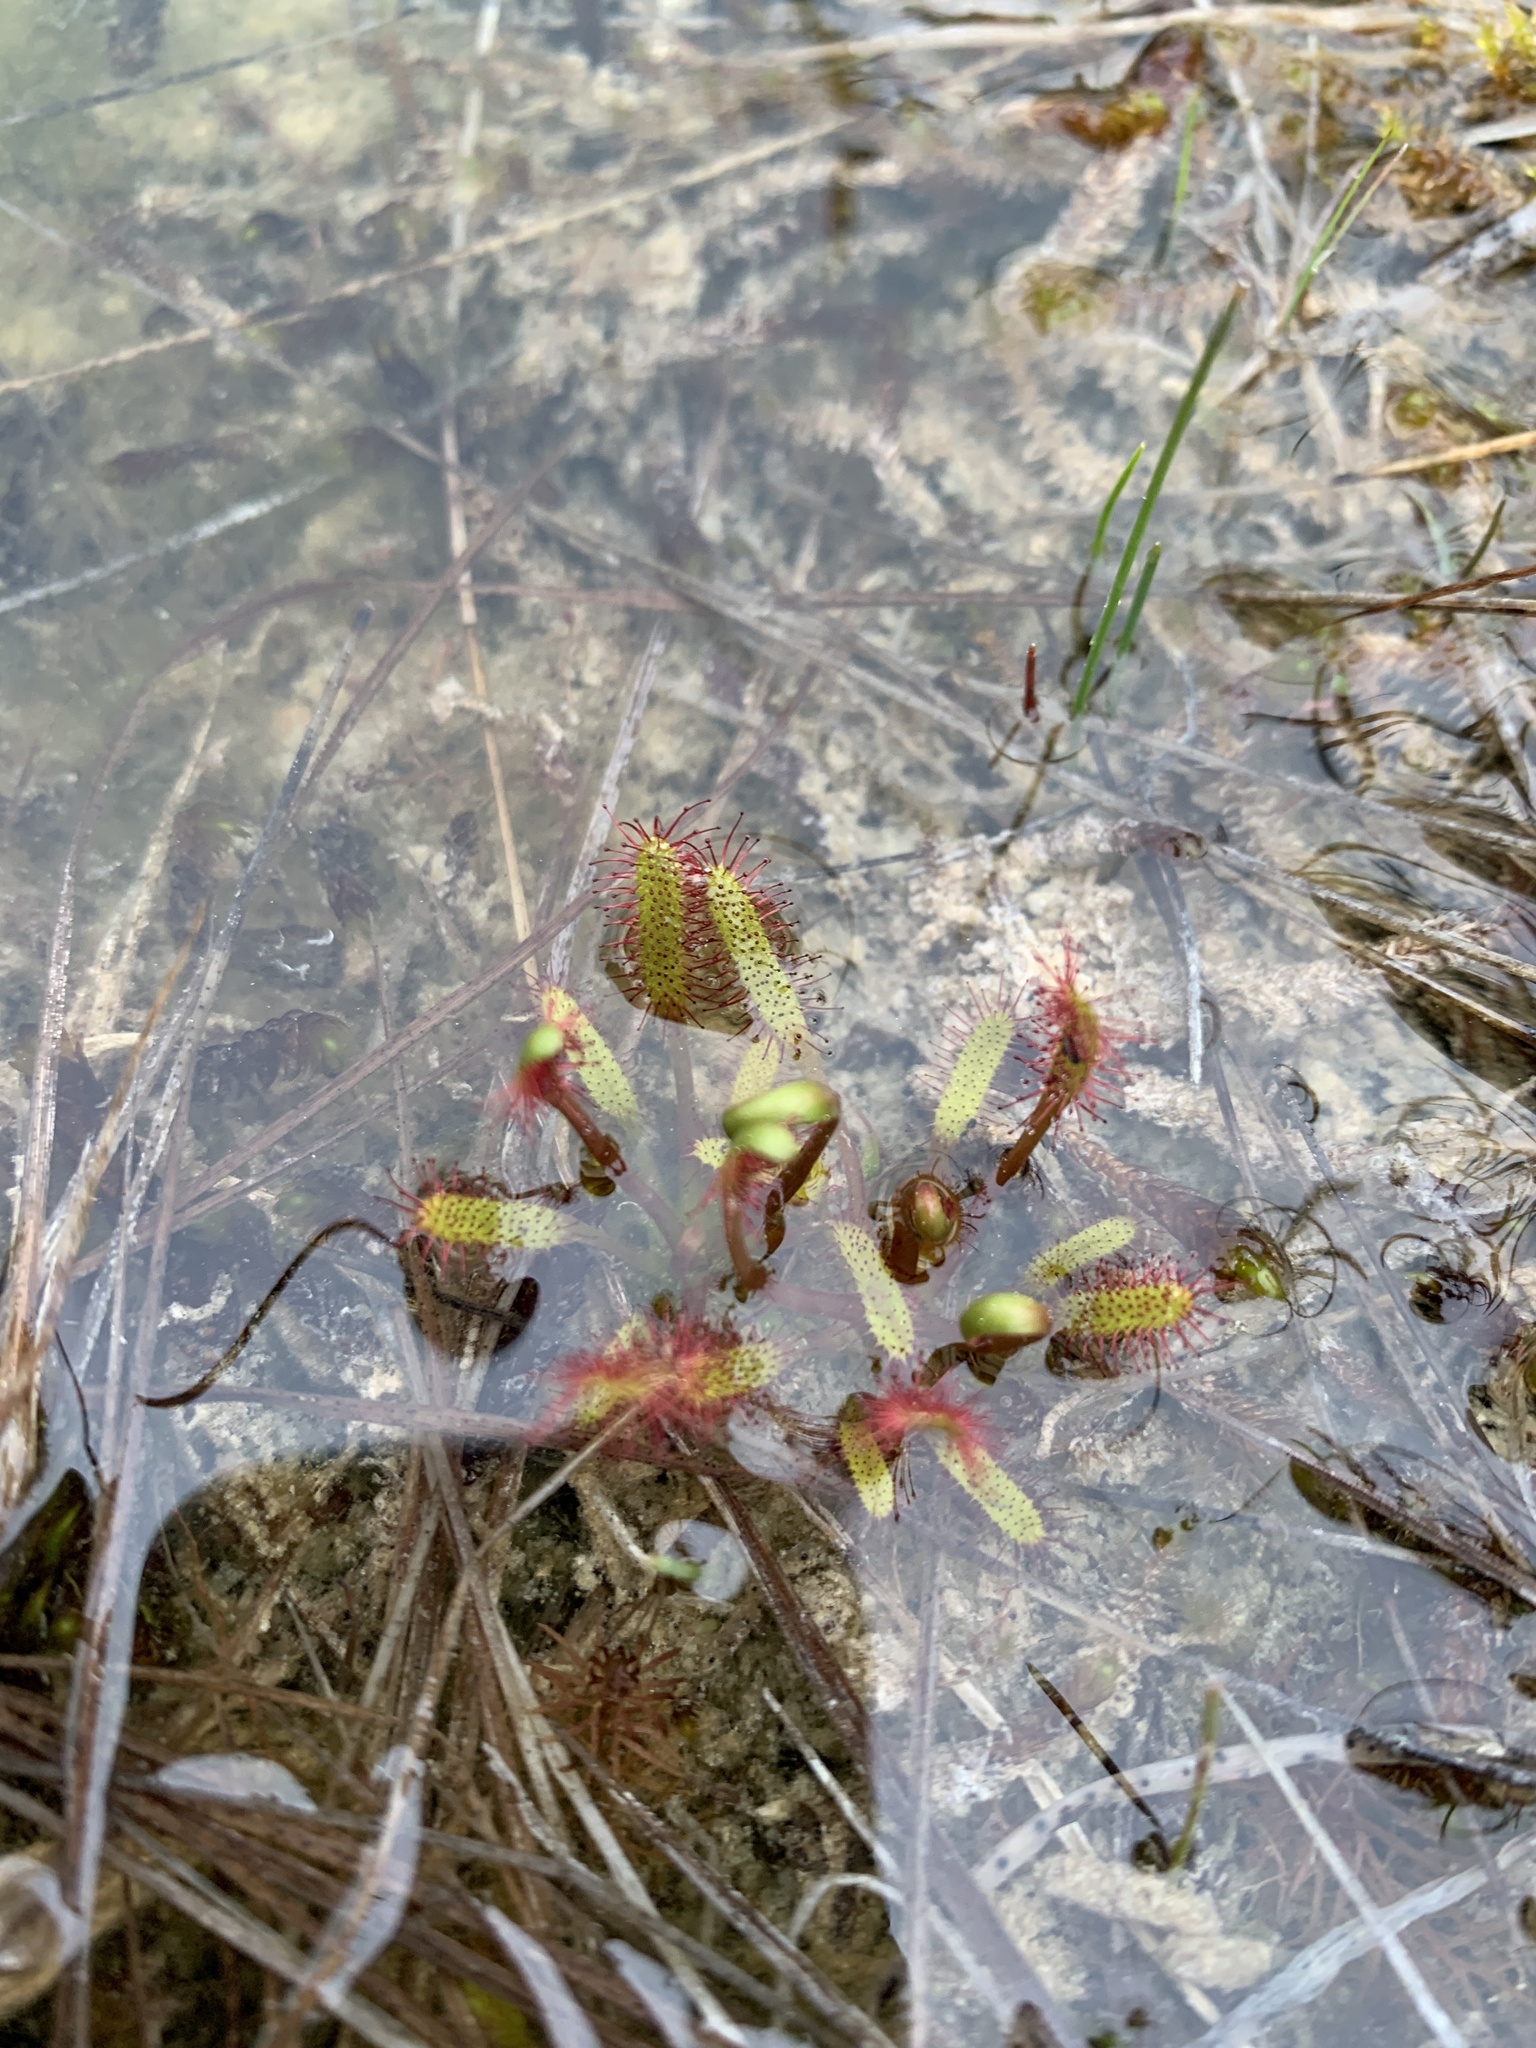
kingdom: Plantae
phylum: Tracheophyta
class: Magnoliopsida
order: Caryophyllales
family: Droseraceae
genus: Drosera
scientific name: Drosera linearis
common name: Linear-leaved sundew
